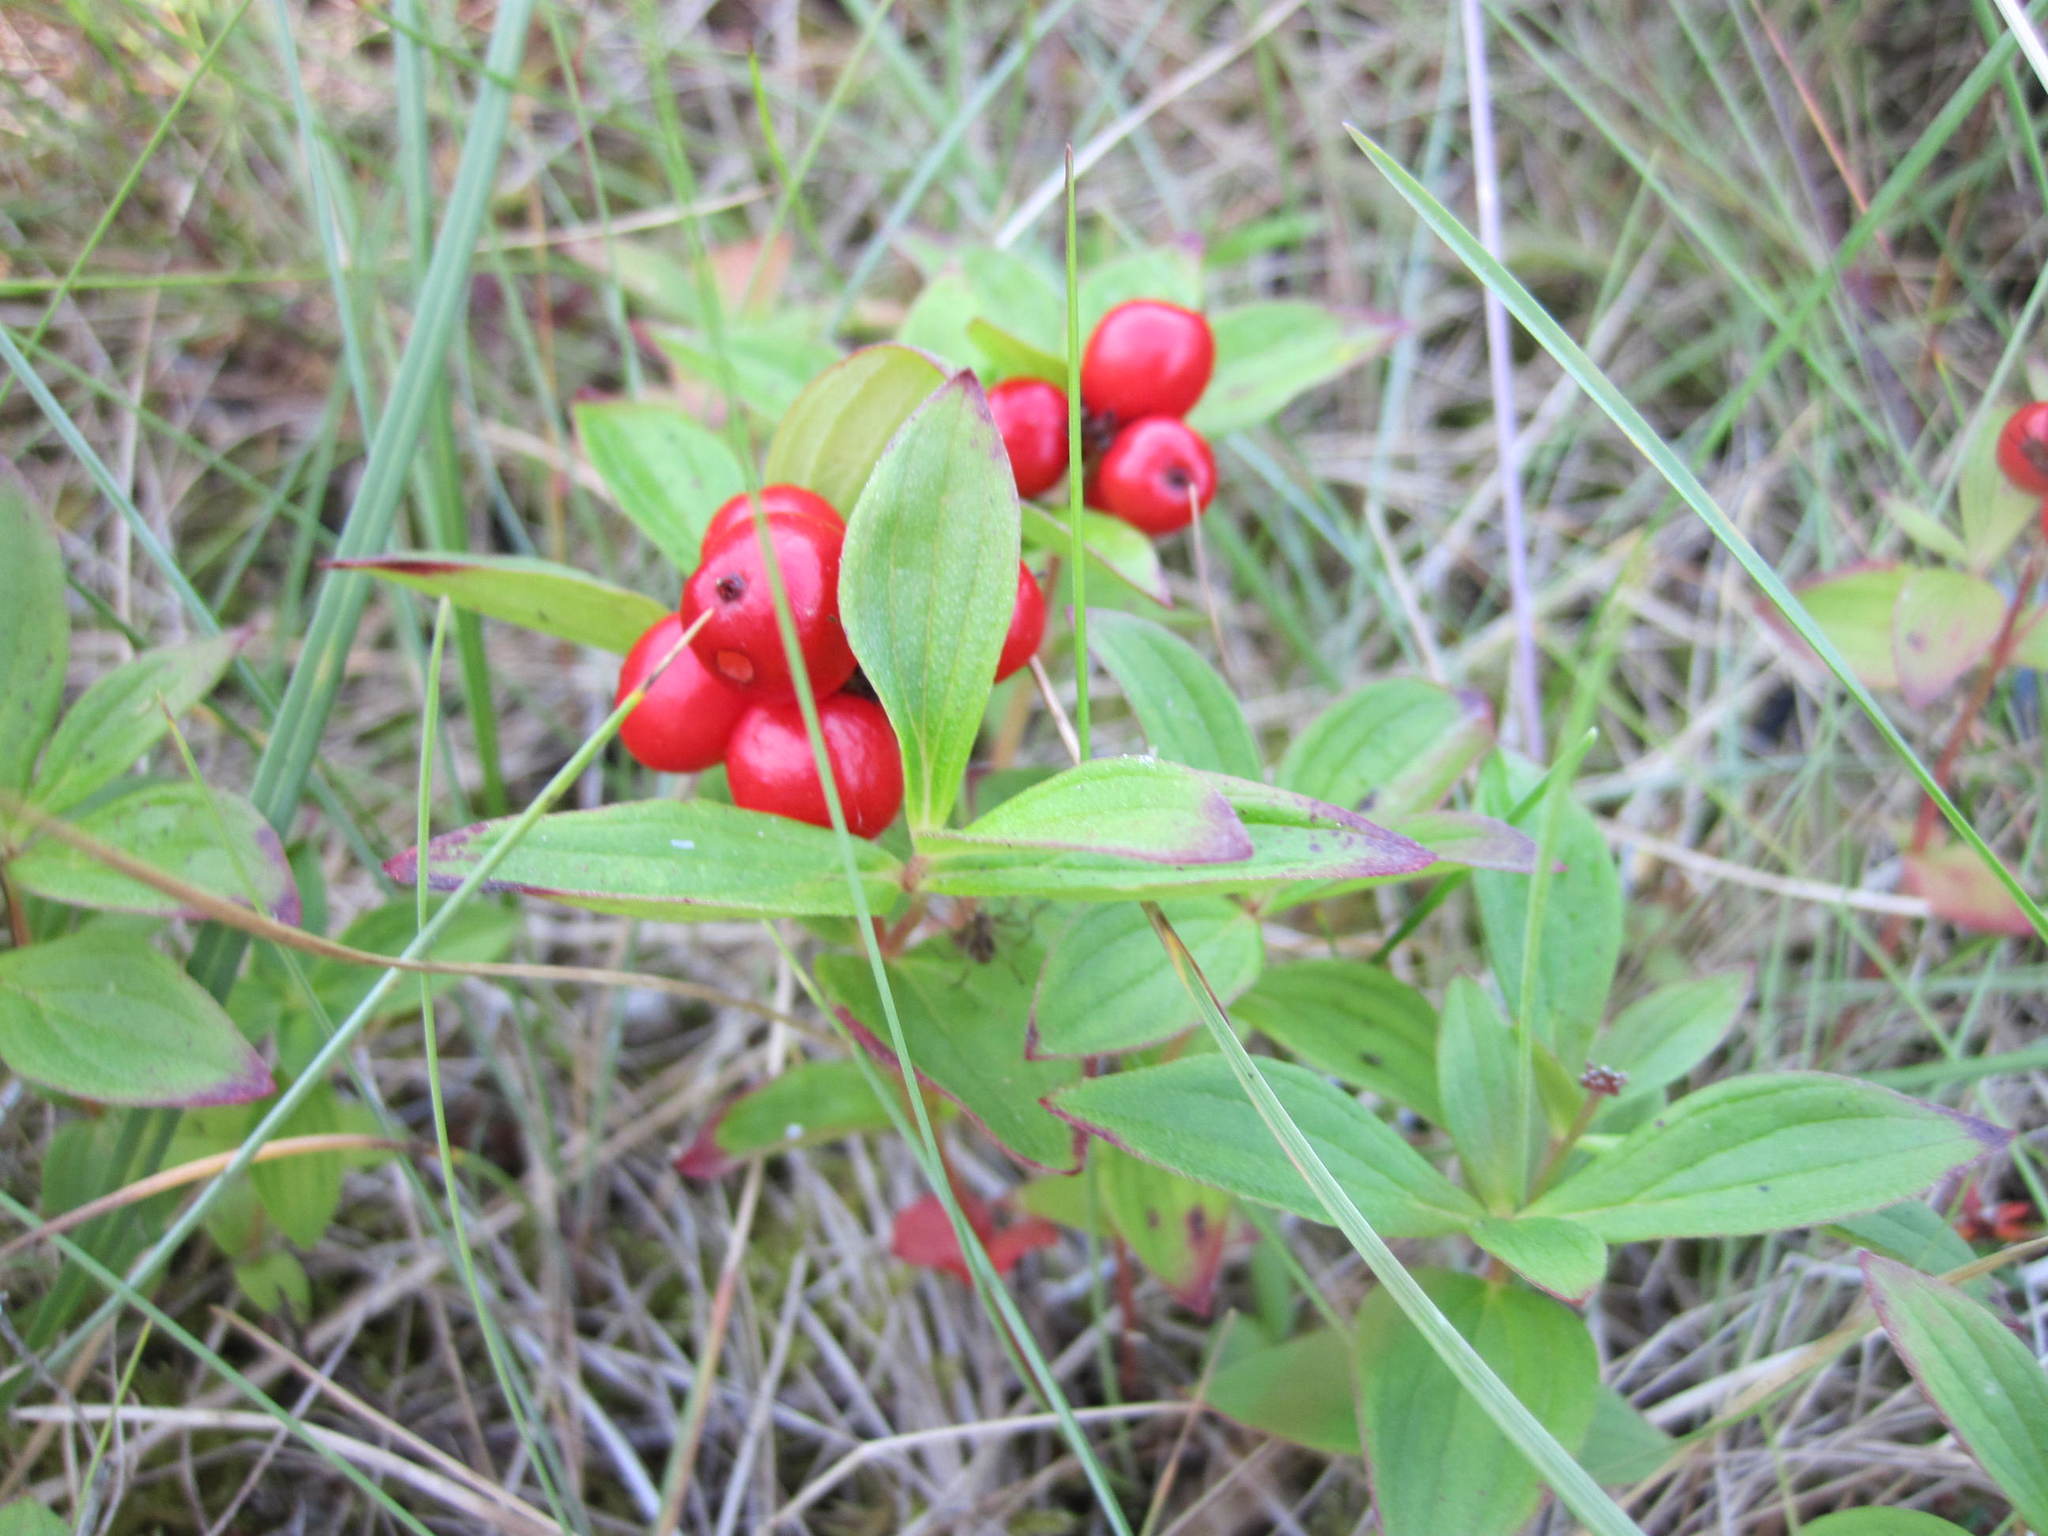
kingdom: Plantae
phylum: Tracheophyta
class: Magnoliopsida
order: Cornales
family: Cornaceae
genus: Cornus
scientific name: Cornus suecica
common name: Dwarf cornel
